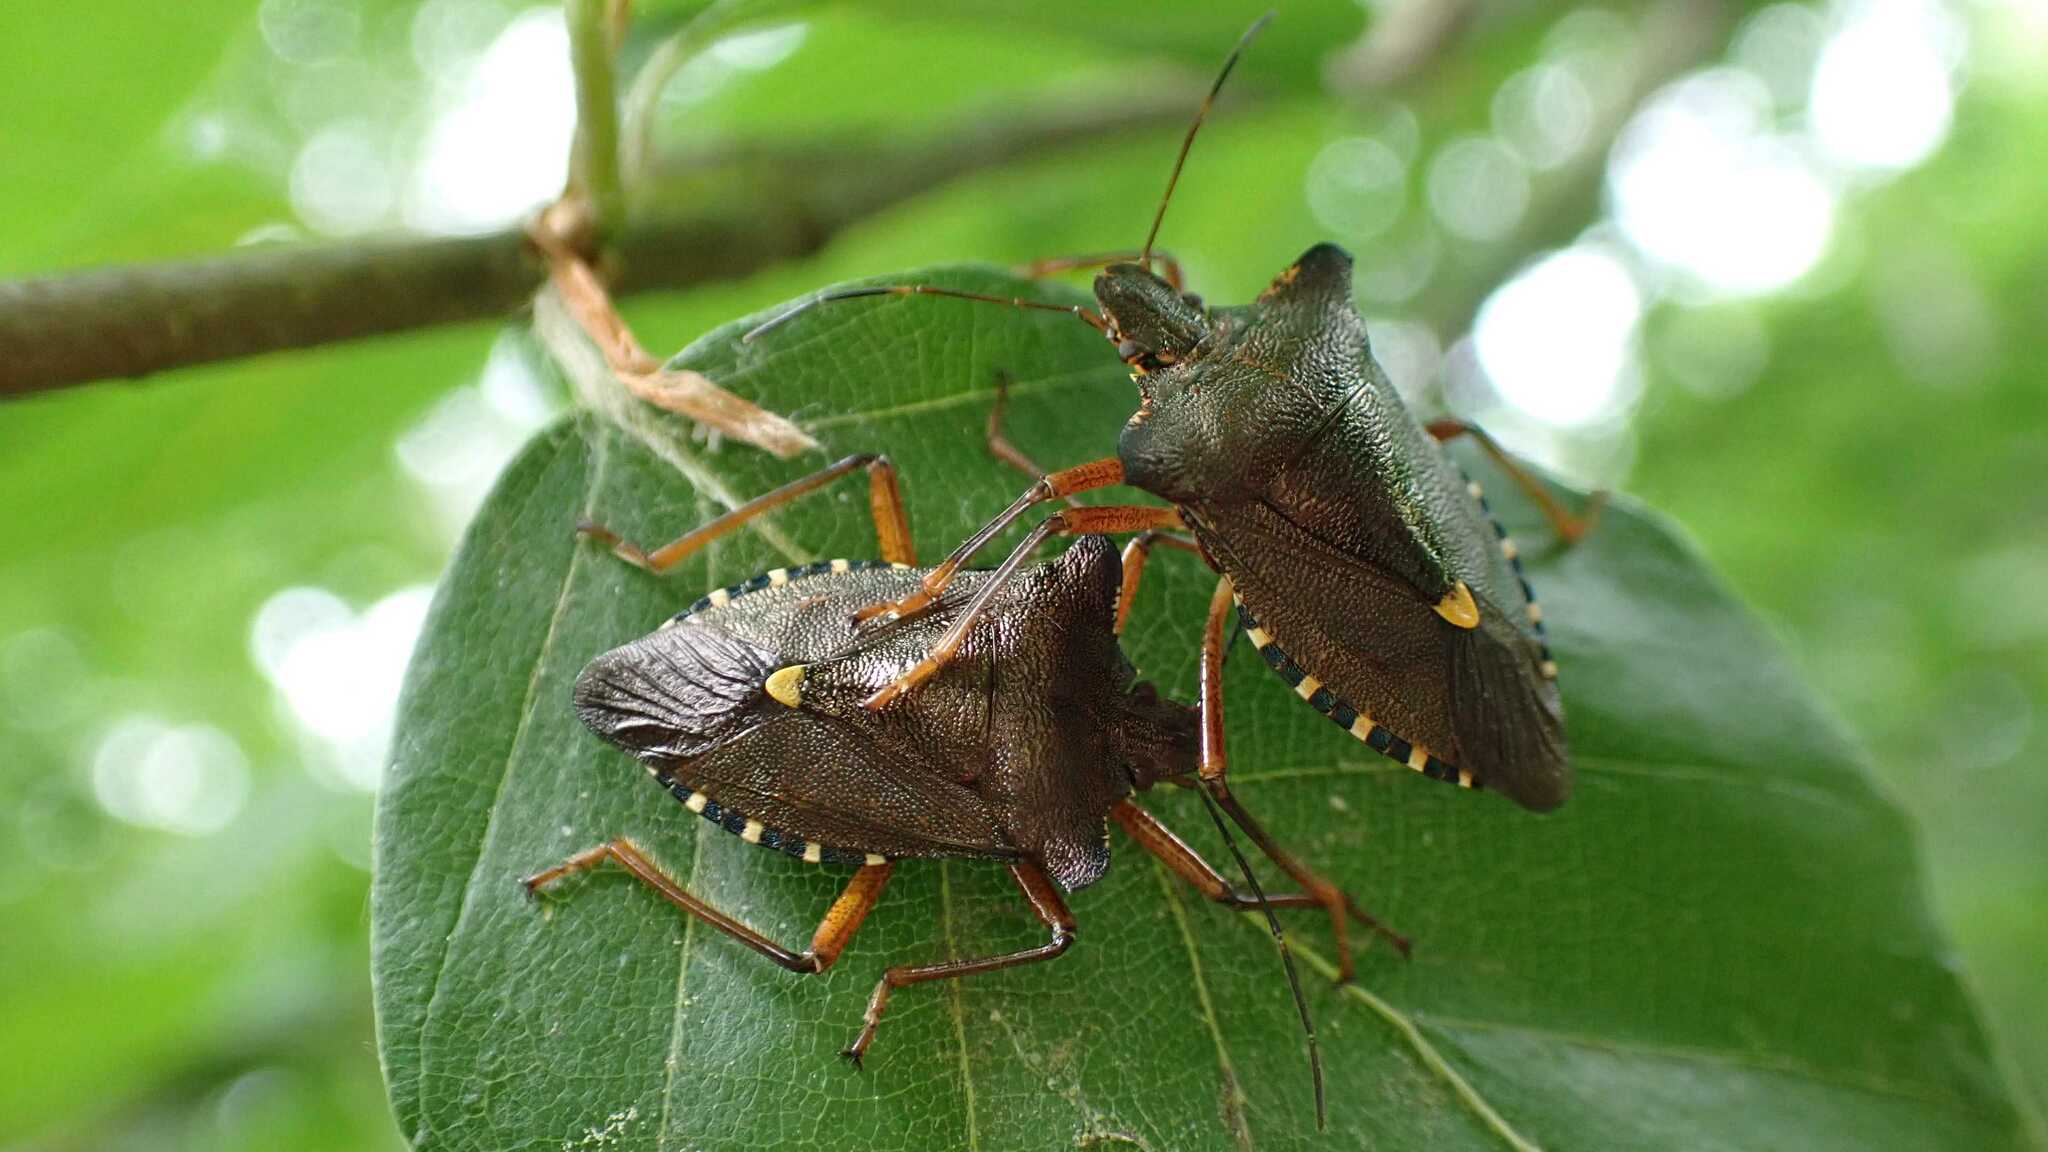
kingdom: Animalia
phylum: Arthropoda
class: Insecta
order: Hemiptera
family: Pentatomidae
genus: Pentatoma
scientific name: Pentatoma rufipes
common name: Forest bug
